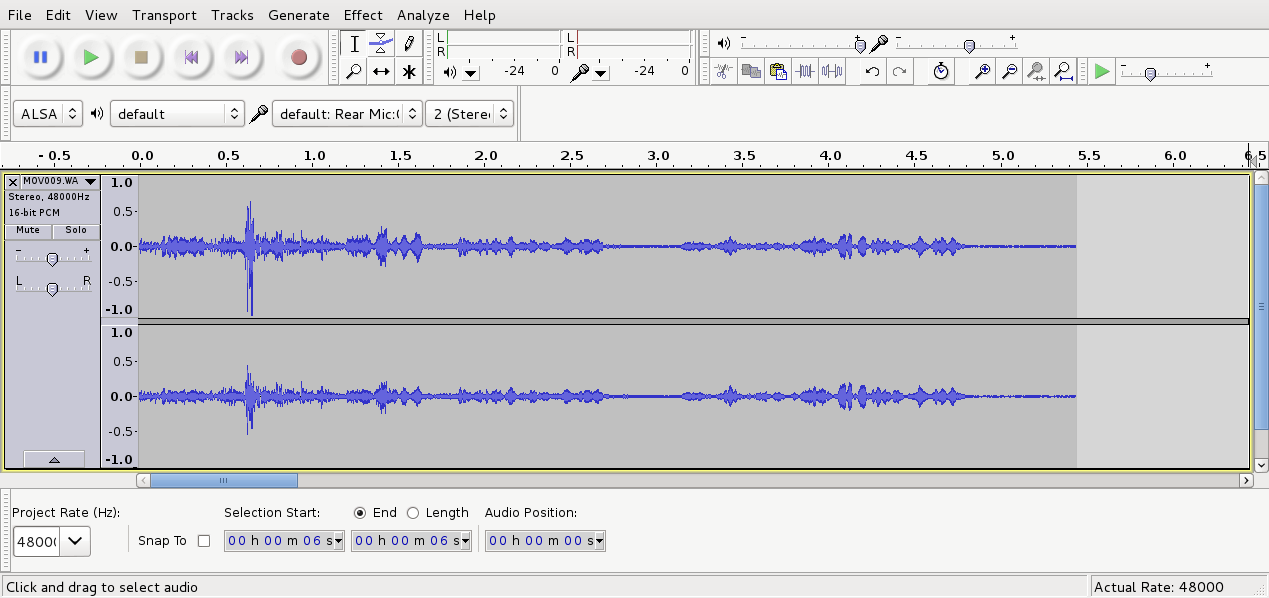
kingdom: Animalia
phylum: Chordata
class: Aves
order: Passeriformes
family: Acanthizidae
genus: Gerygone
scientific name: Gerygone igata
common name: Grey gerygone
